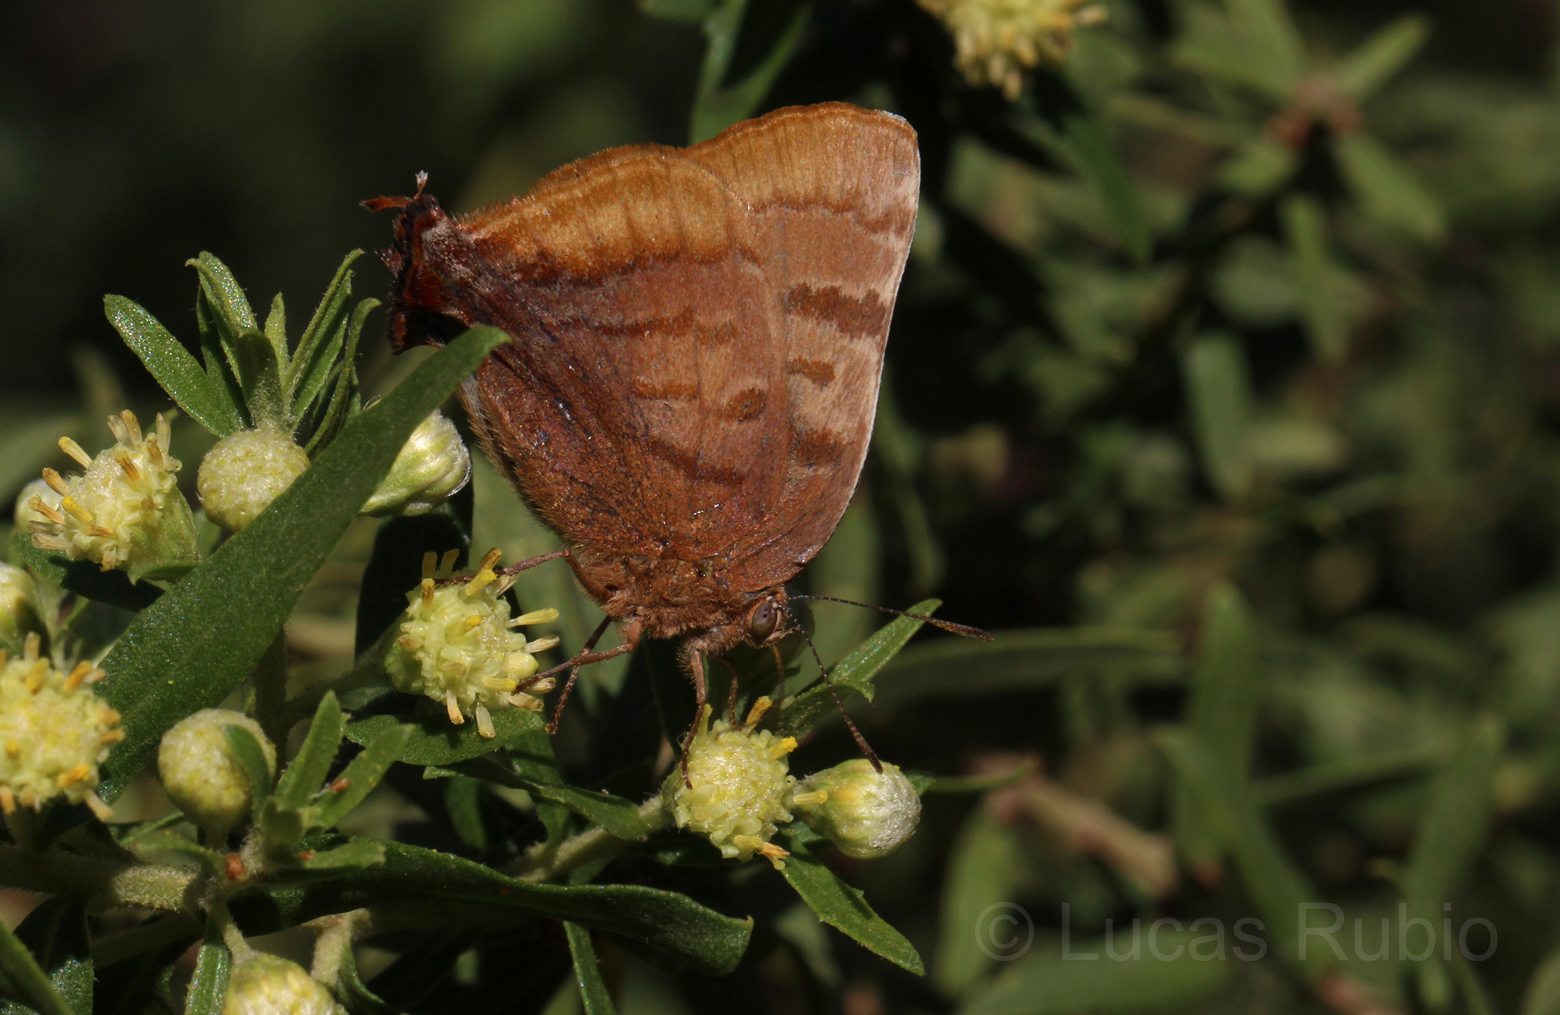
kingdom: Animalia
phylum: Arthropoda
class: Insecta
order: Lepidoptera
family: Lycaenidae
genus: Thecla
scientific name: Thecla marius
